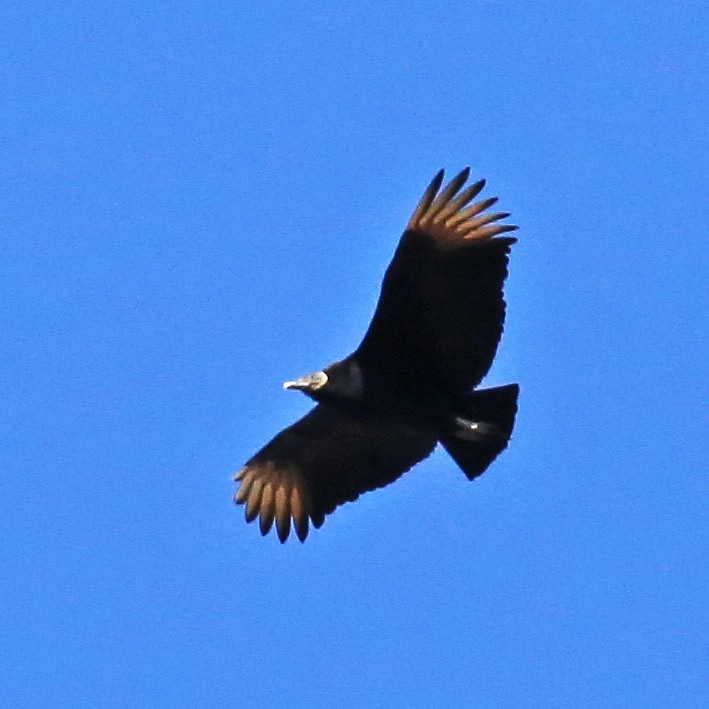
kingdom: Animalia
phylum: Chordata
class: Aves
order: Accipitriformes
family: Cathartidae
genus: Coragyps
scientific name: Coragyps atratus
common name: Black vulture
